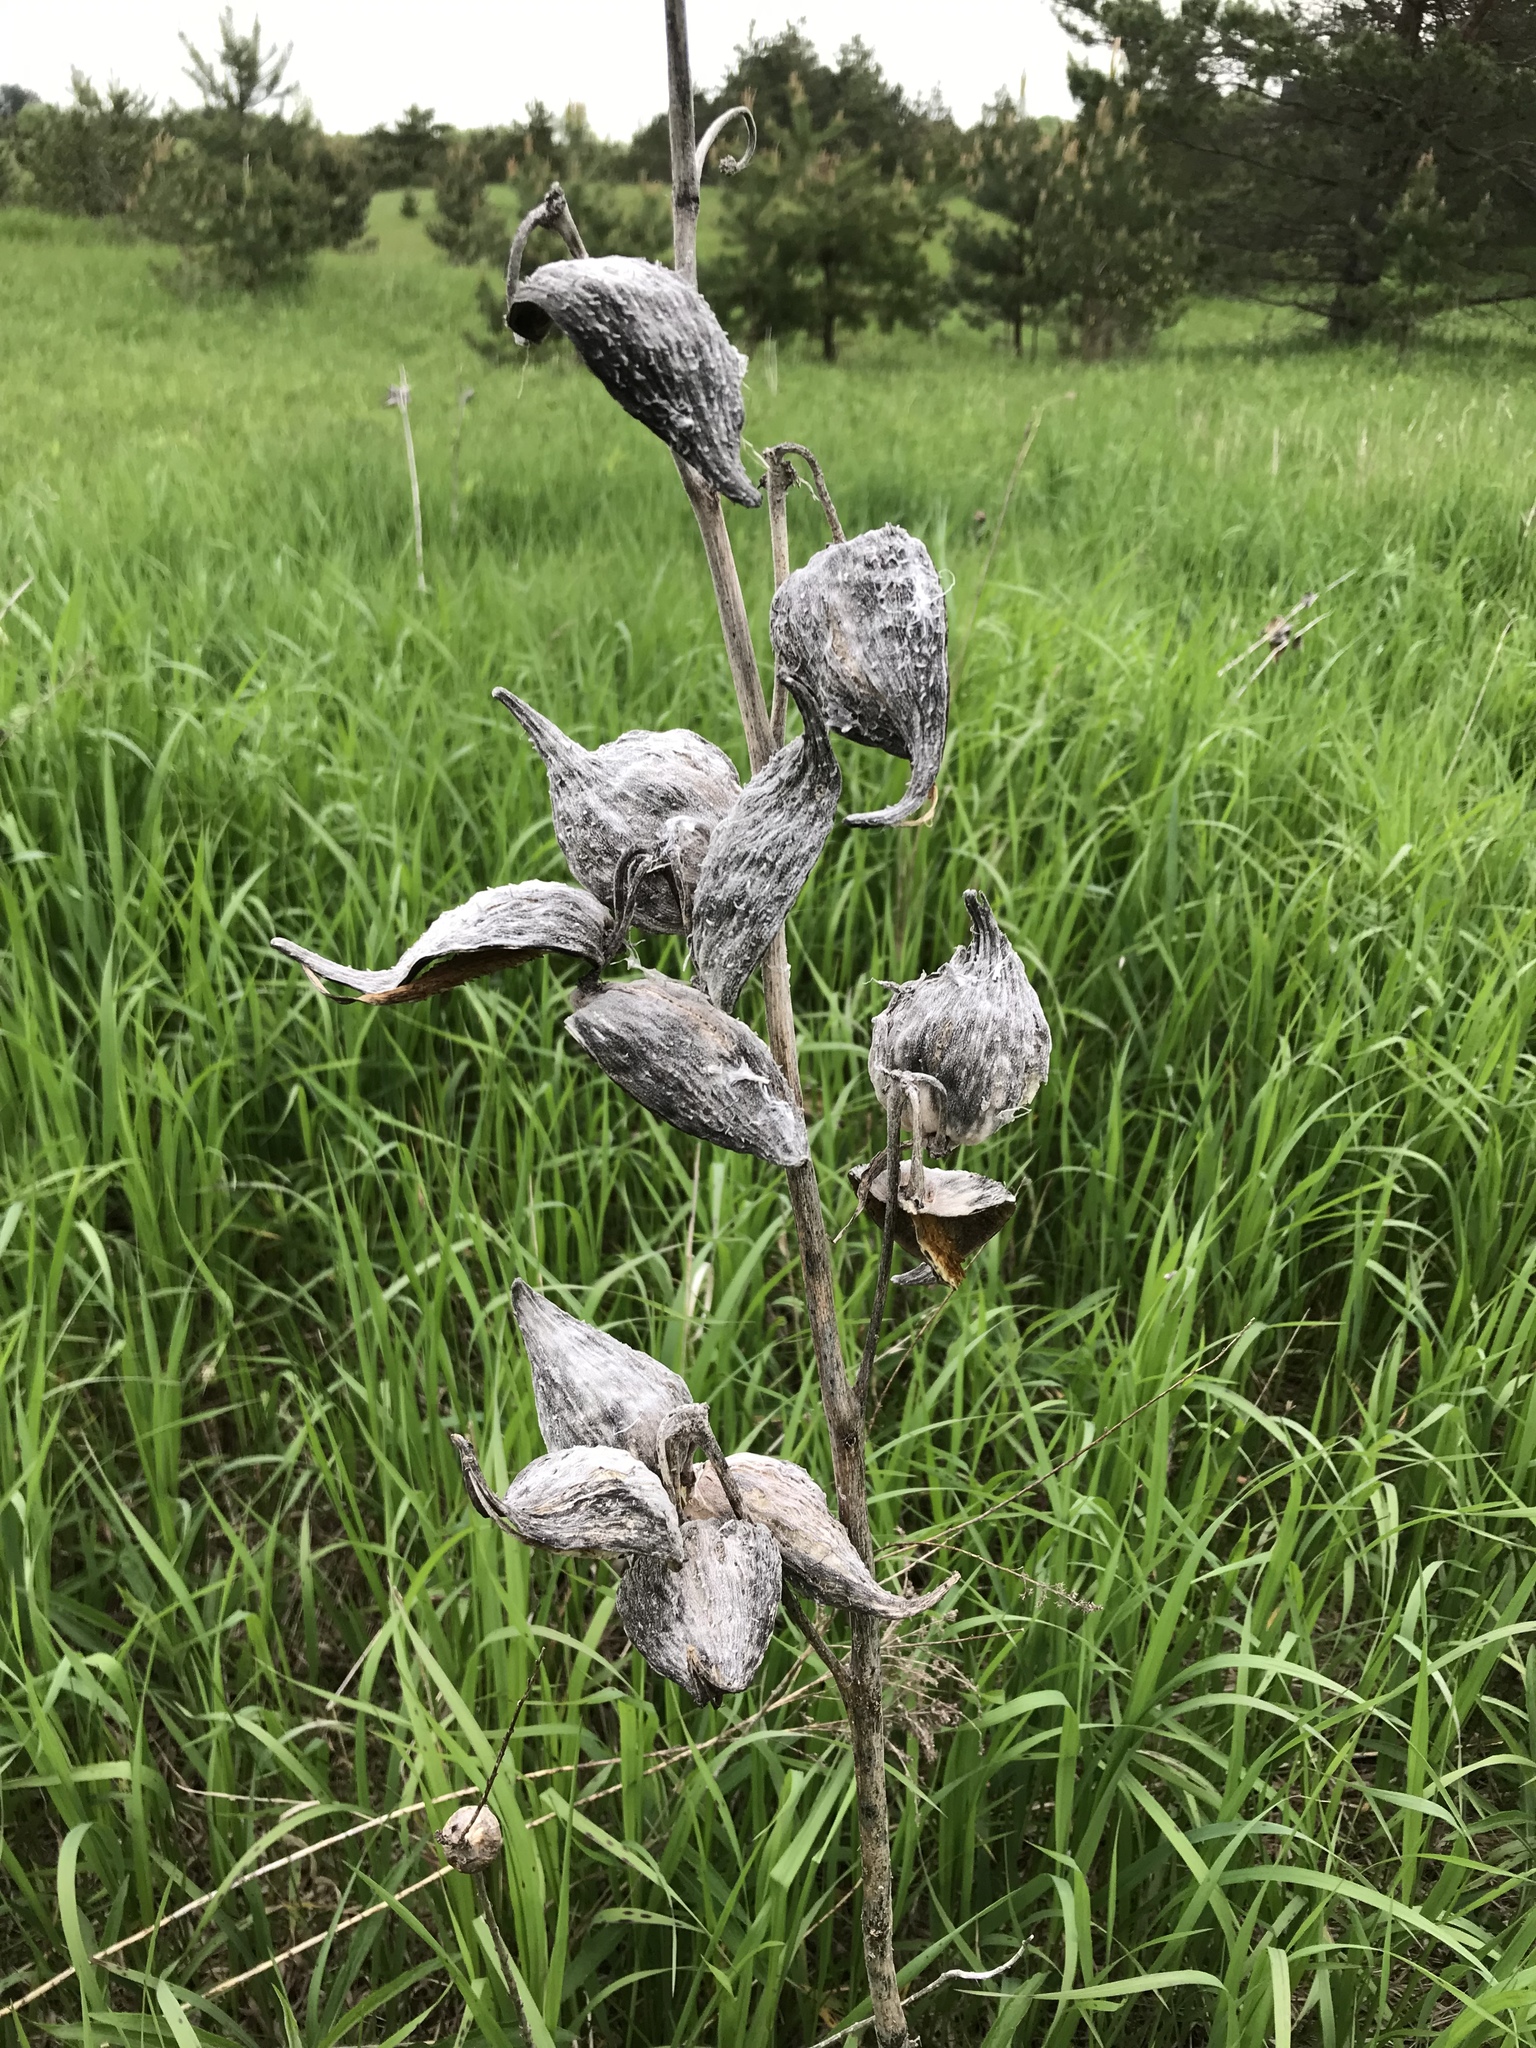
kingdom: Plantae
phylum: Tracheophyta
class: Magnoliopsida
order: Gentianales
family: Apocynaceae
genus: Asclepias
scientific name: Asclepias syriaca
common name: Common milkweed
